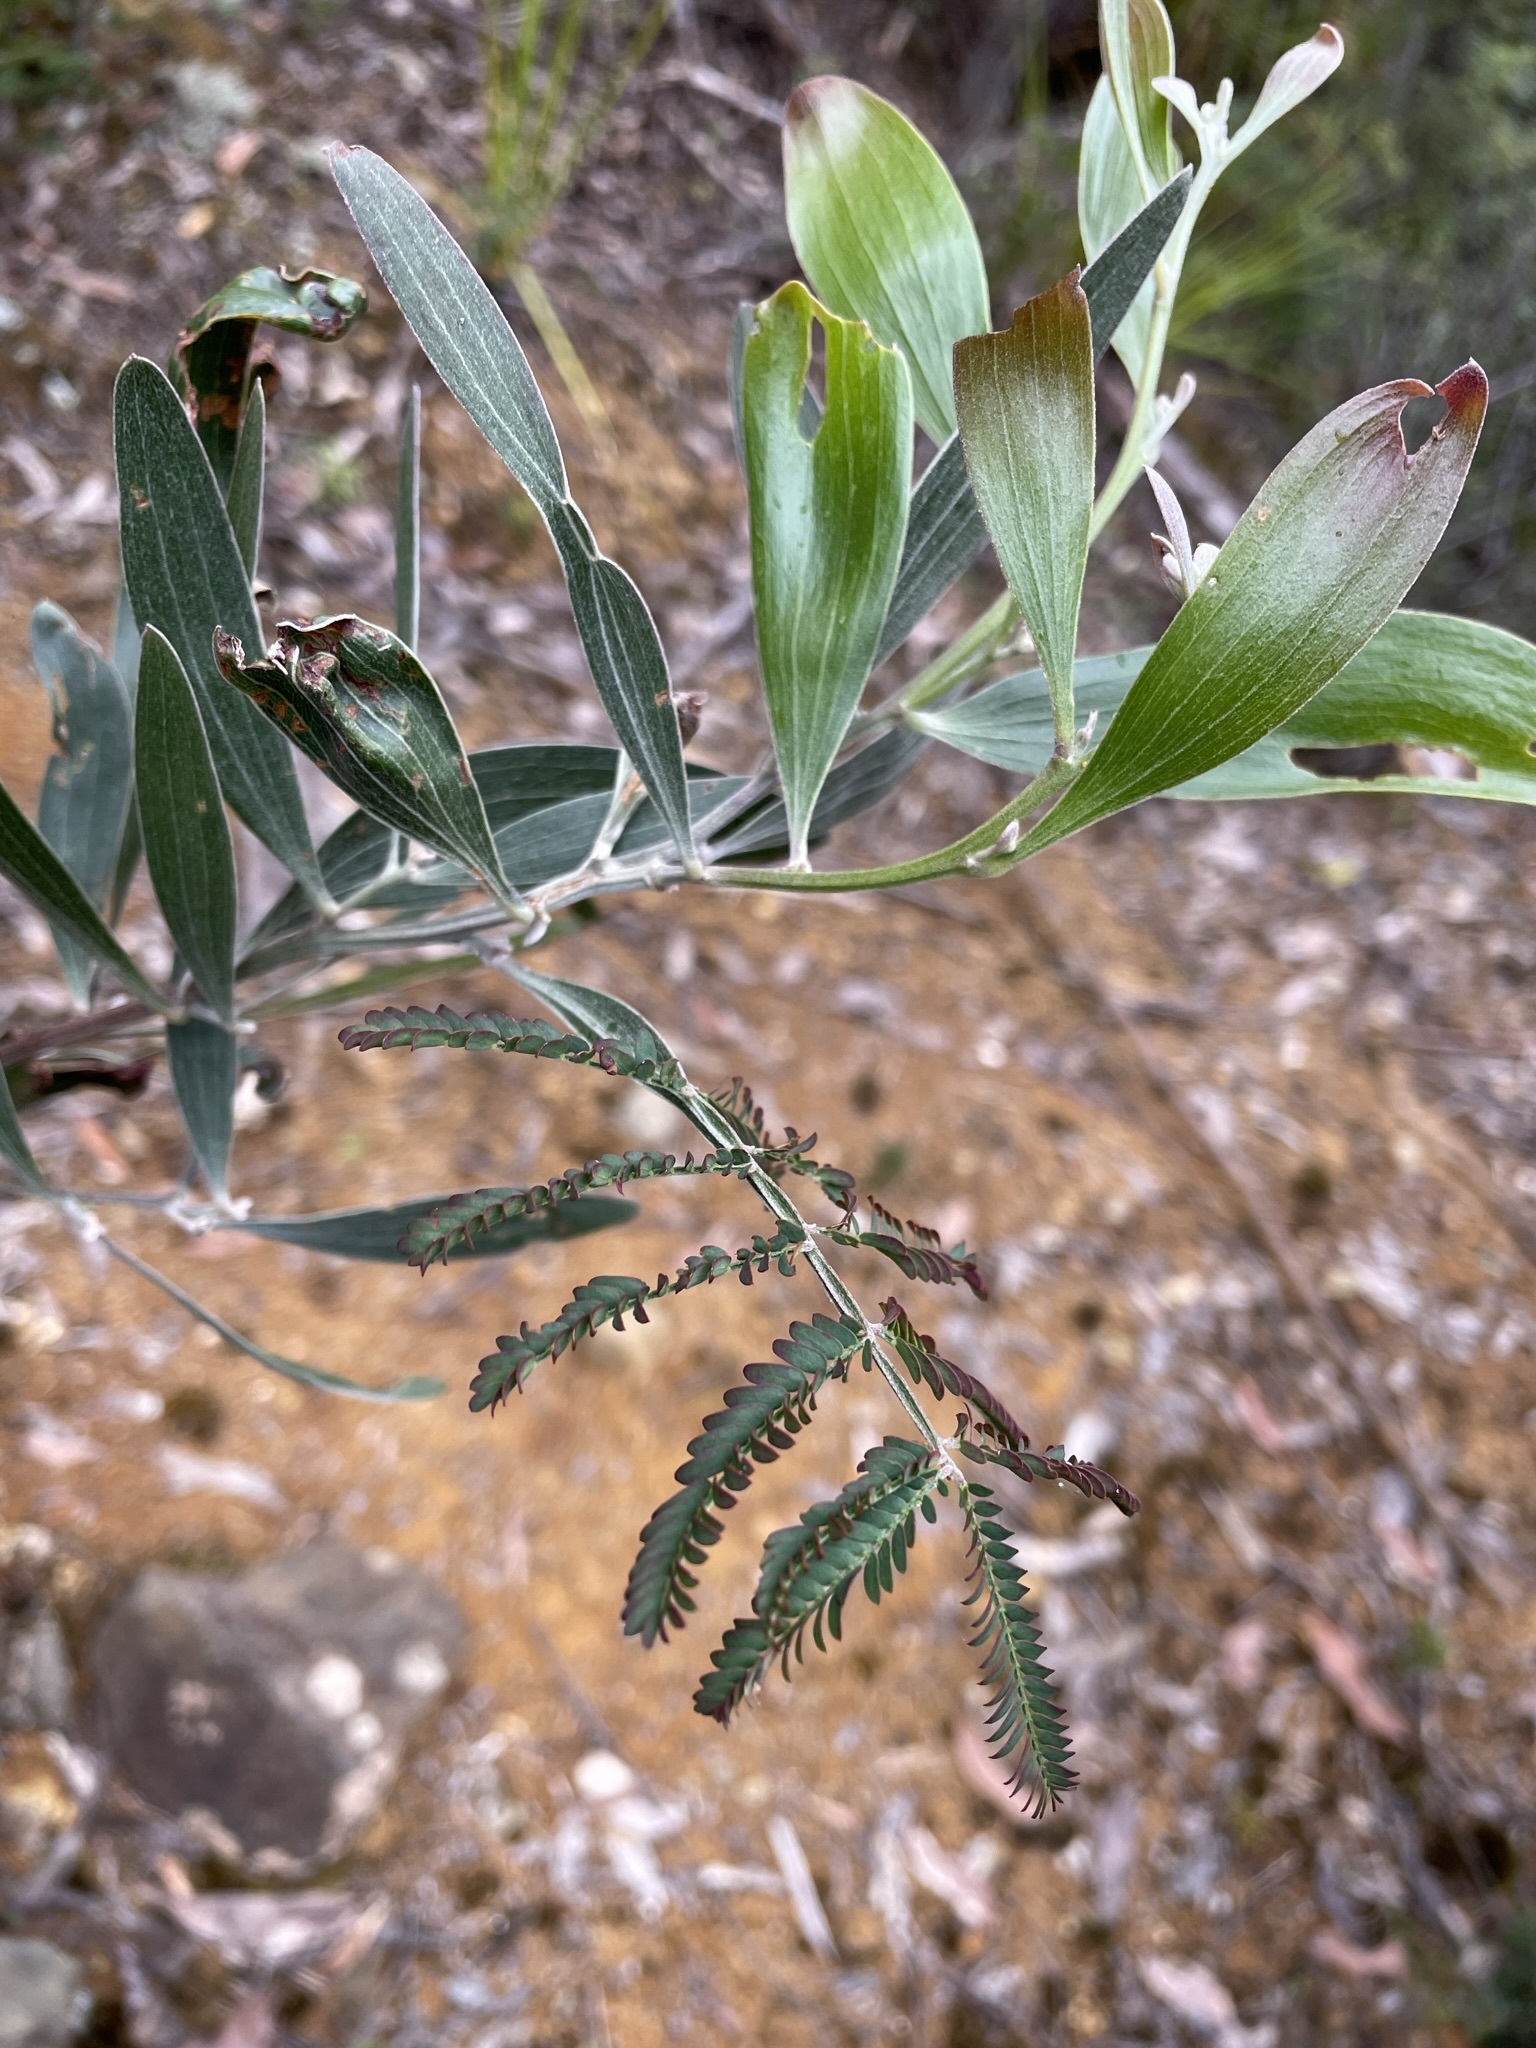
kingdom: Plantae
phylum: Tracheophyta
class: Magnoliopsida
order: Fabales
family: Fabaceae
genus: Acacia
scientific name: Acacia melanoxylon
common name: Blackwood
